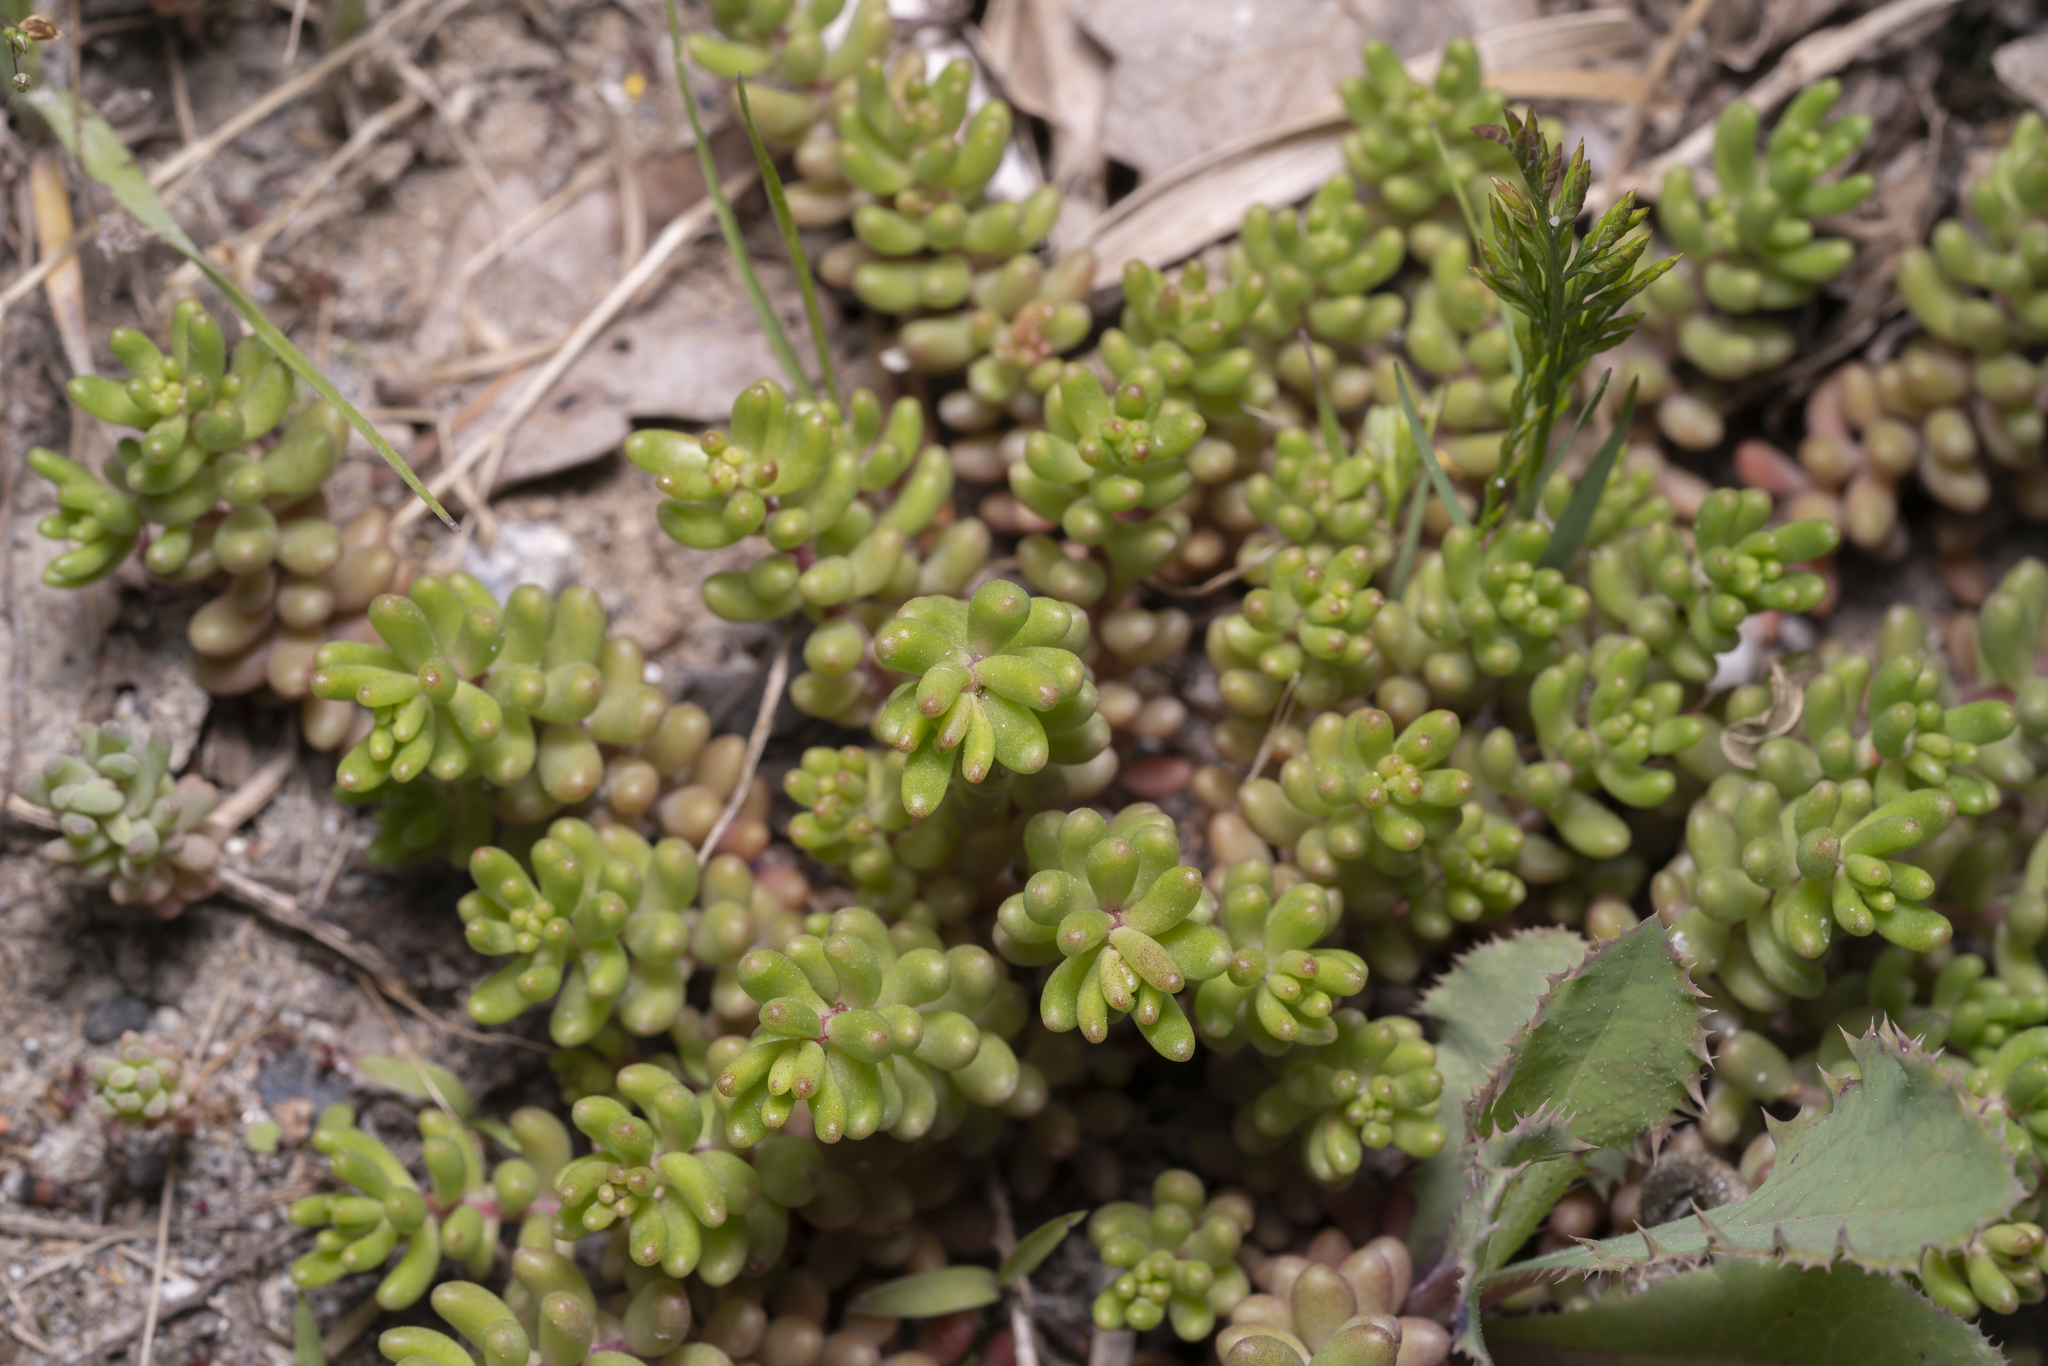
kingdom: Plantae
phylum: Tracheophyta
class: Magnoliopsida
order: Saxifragales
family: Crassulaceae
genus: Sedum
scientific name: Sedum album
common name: White stonecrop
